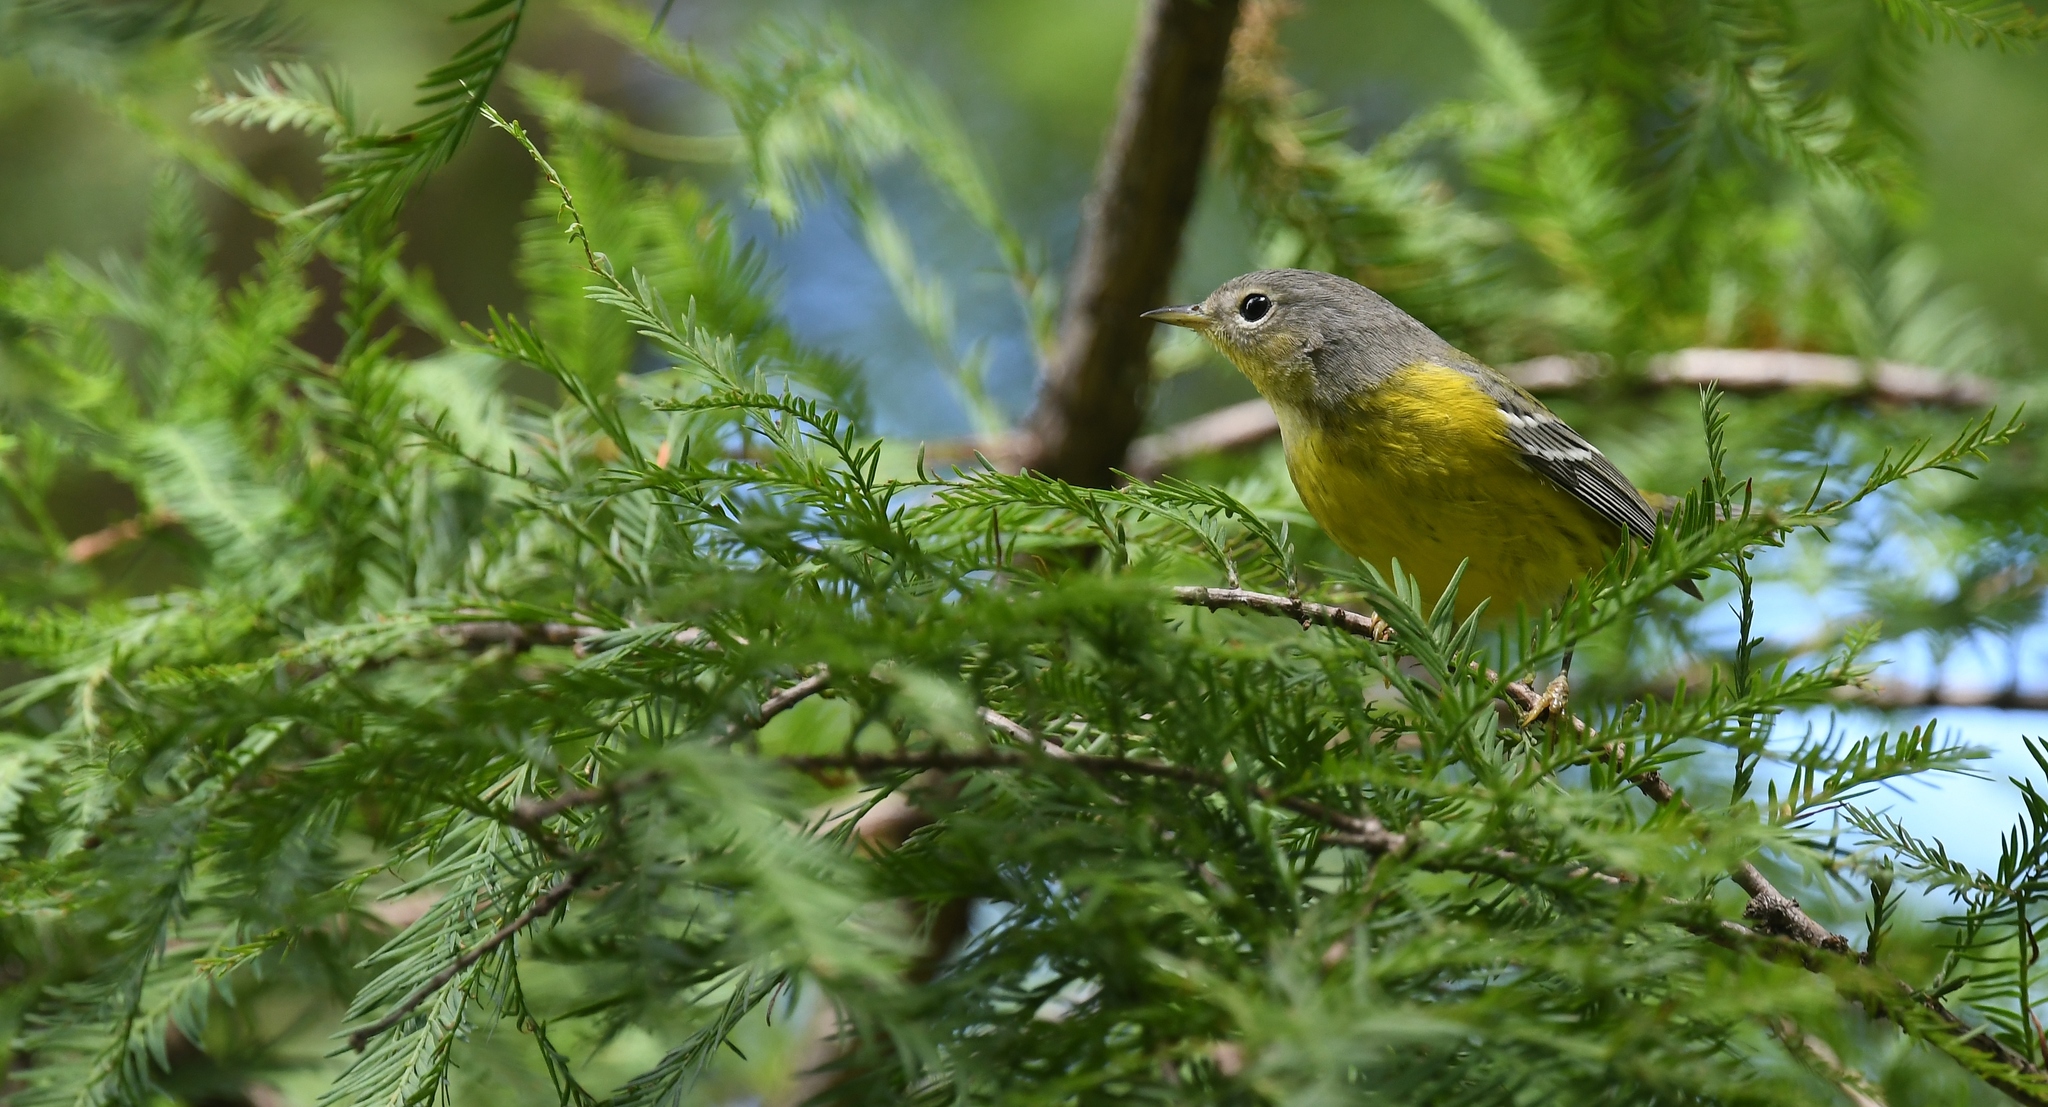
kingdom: Animalia
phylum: Chordata
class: Aves
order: Passeriformes
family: Parulidae
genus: Setophaga
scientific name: Setophaga magnolia
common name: Magnolia warbler
